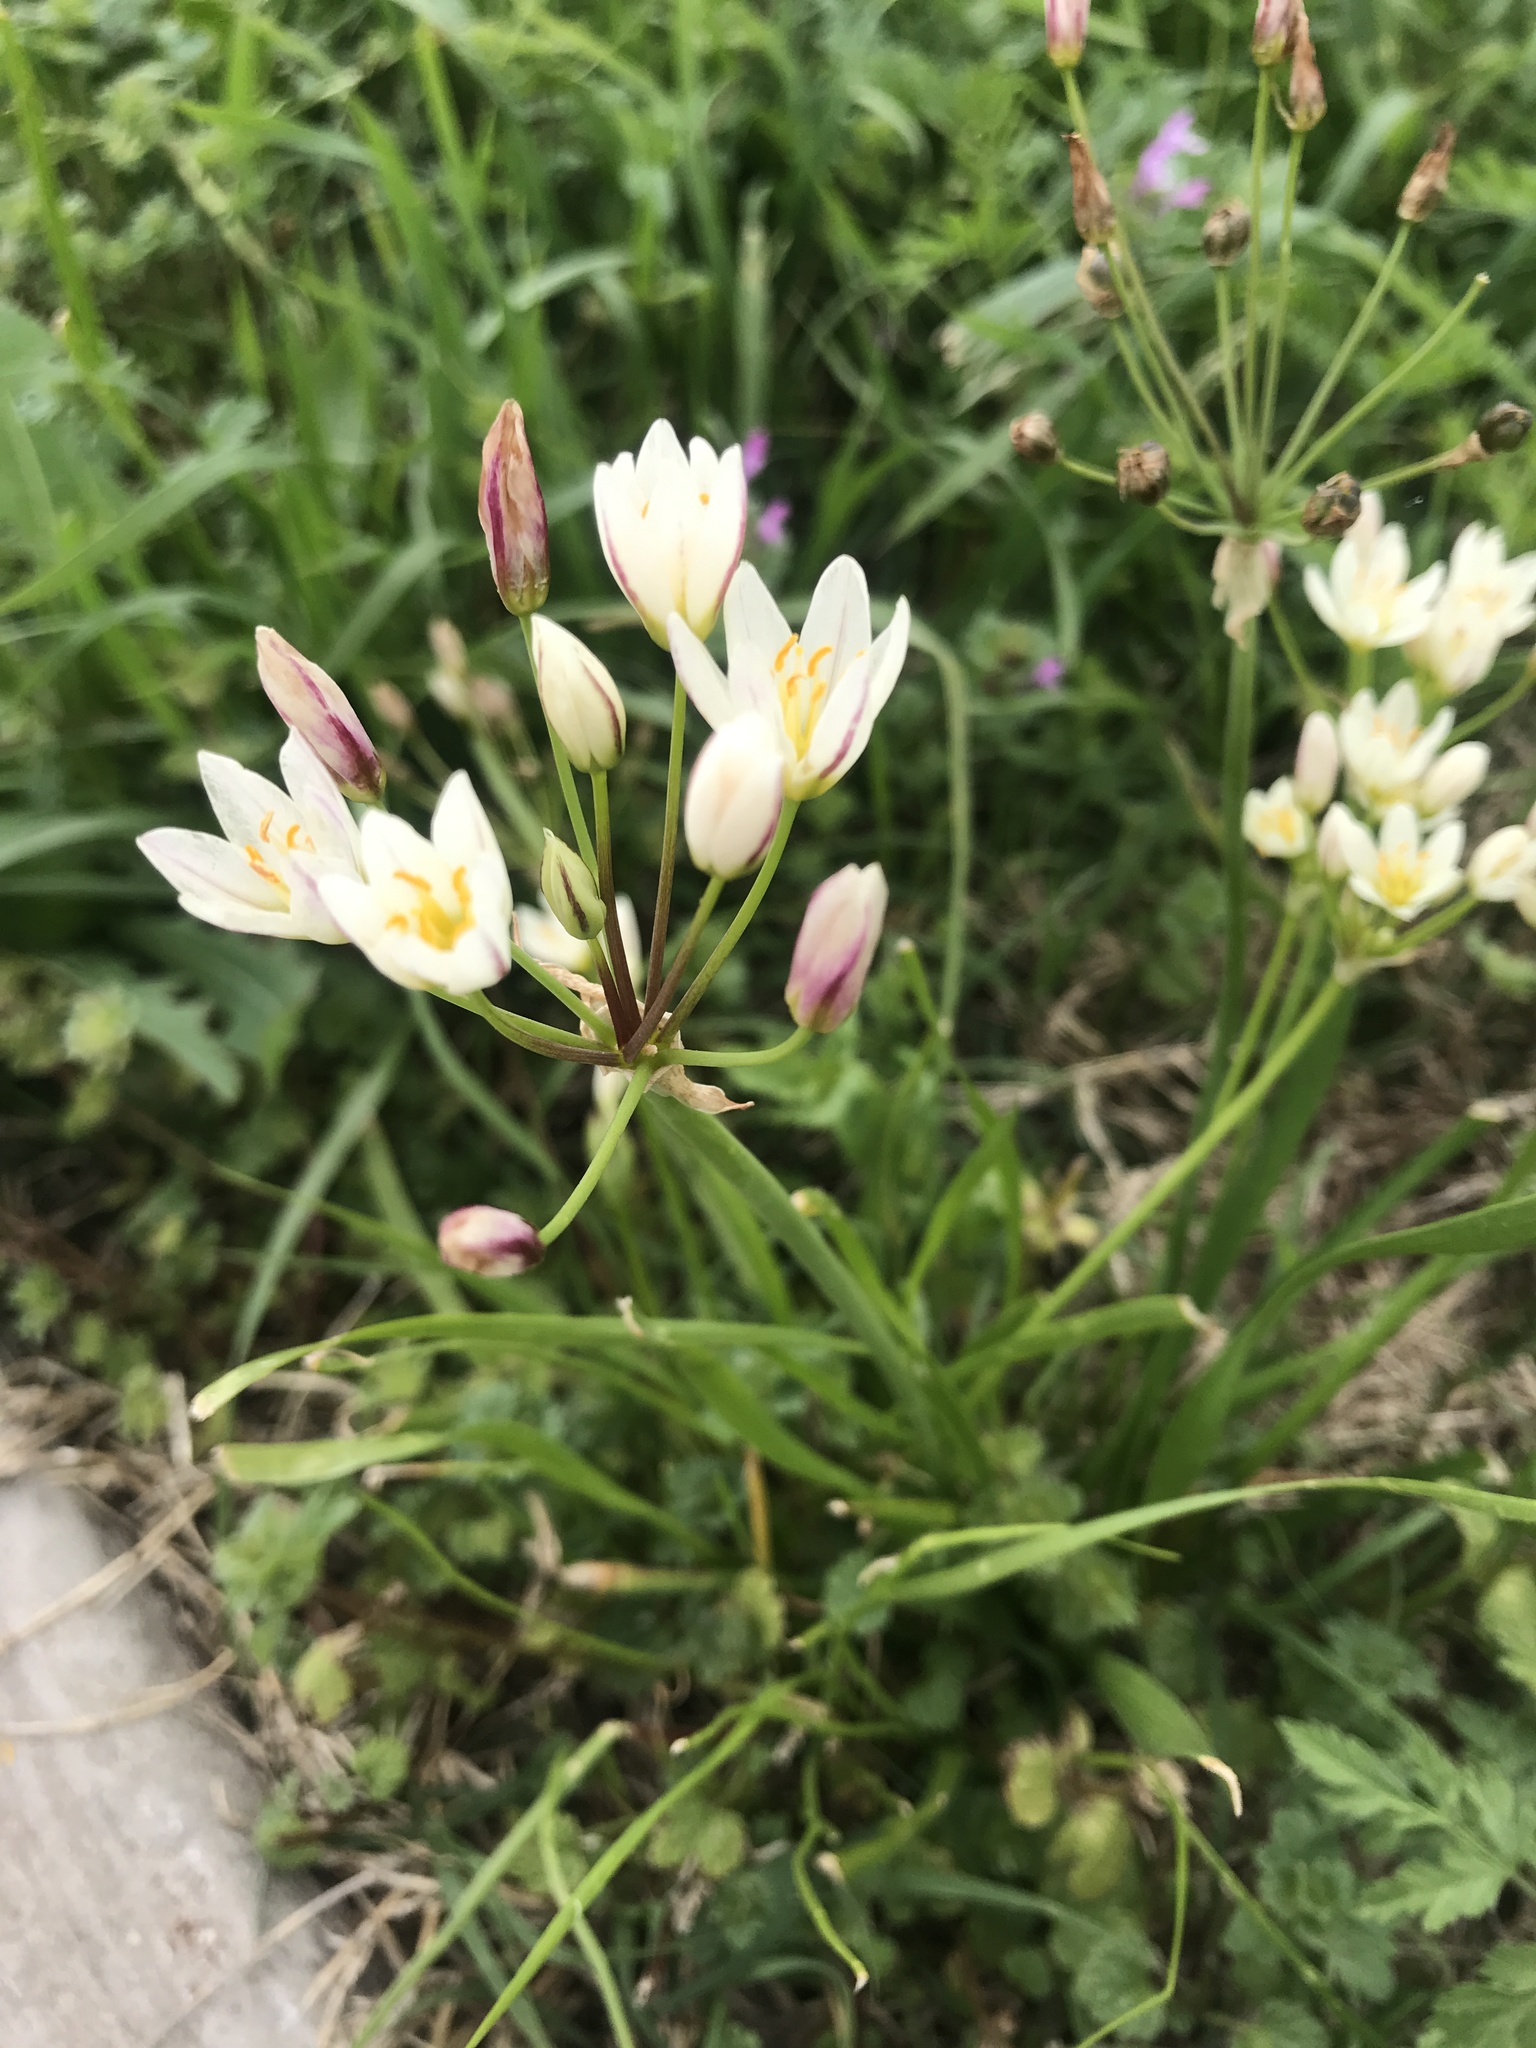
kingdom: Plantae
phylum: Tracheophyta
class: Liliopsida
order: Asparagales
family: Amaryllidaceae
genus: Nothoscordum
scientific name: Nothoscordum bivalve
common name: Crow-poison
